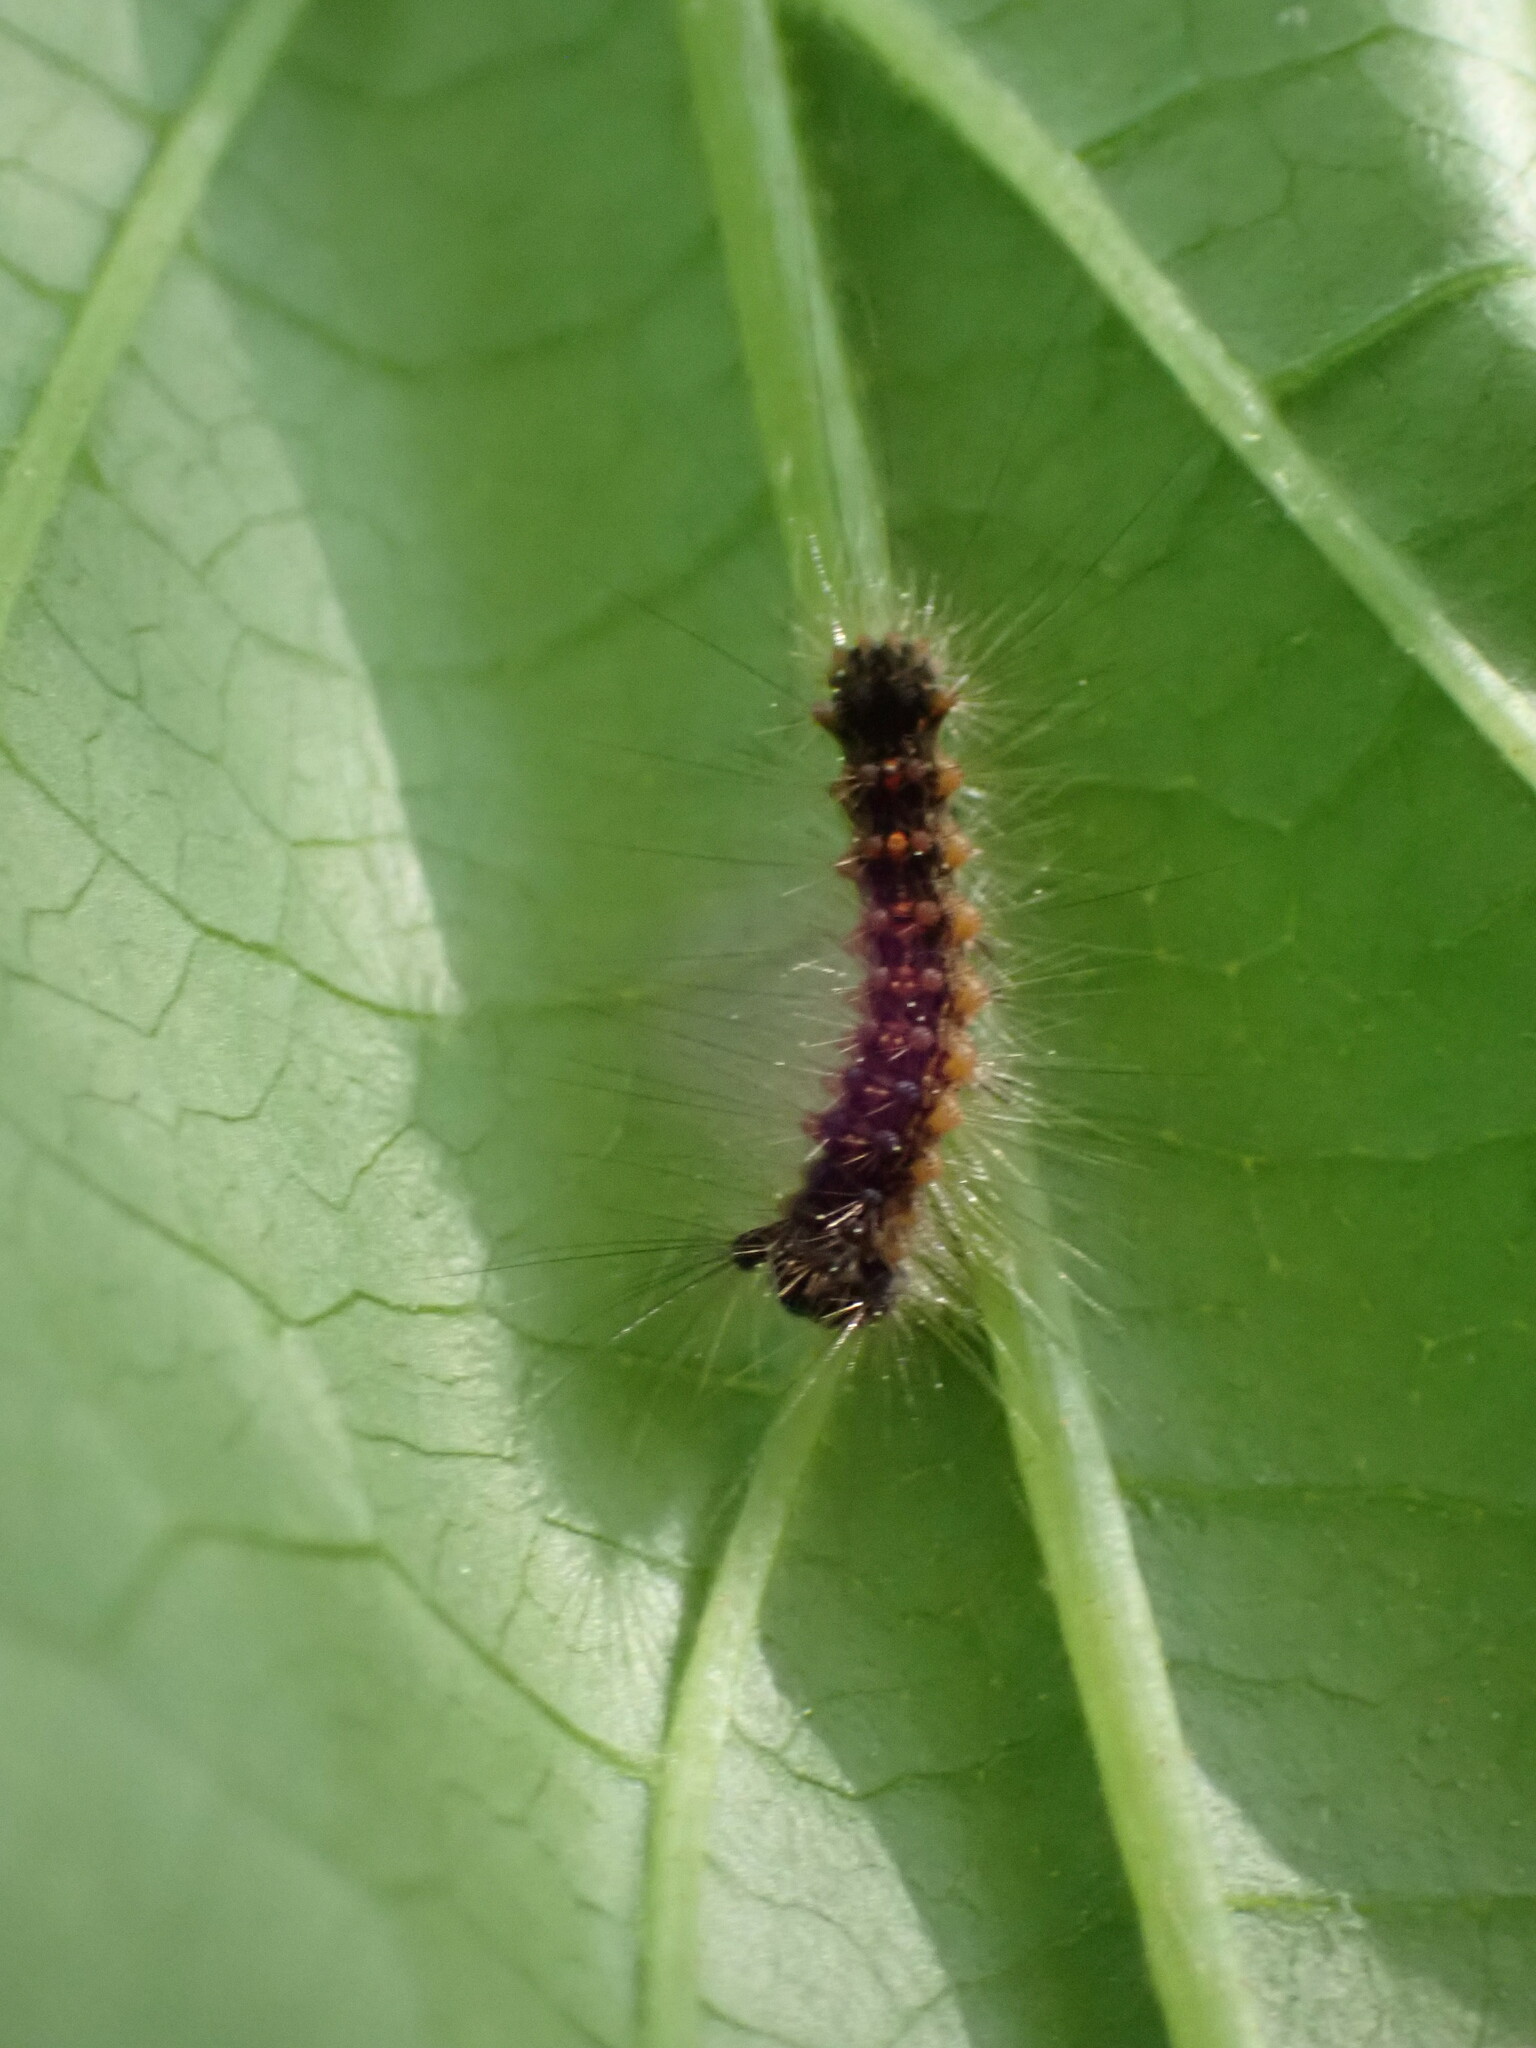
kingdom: Animalia
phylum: Arthropoda
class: Insecta
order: Lepidoptera
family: Erebidae
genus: Lymantria
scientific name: Lymantria dispar
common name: Gypsy moth
